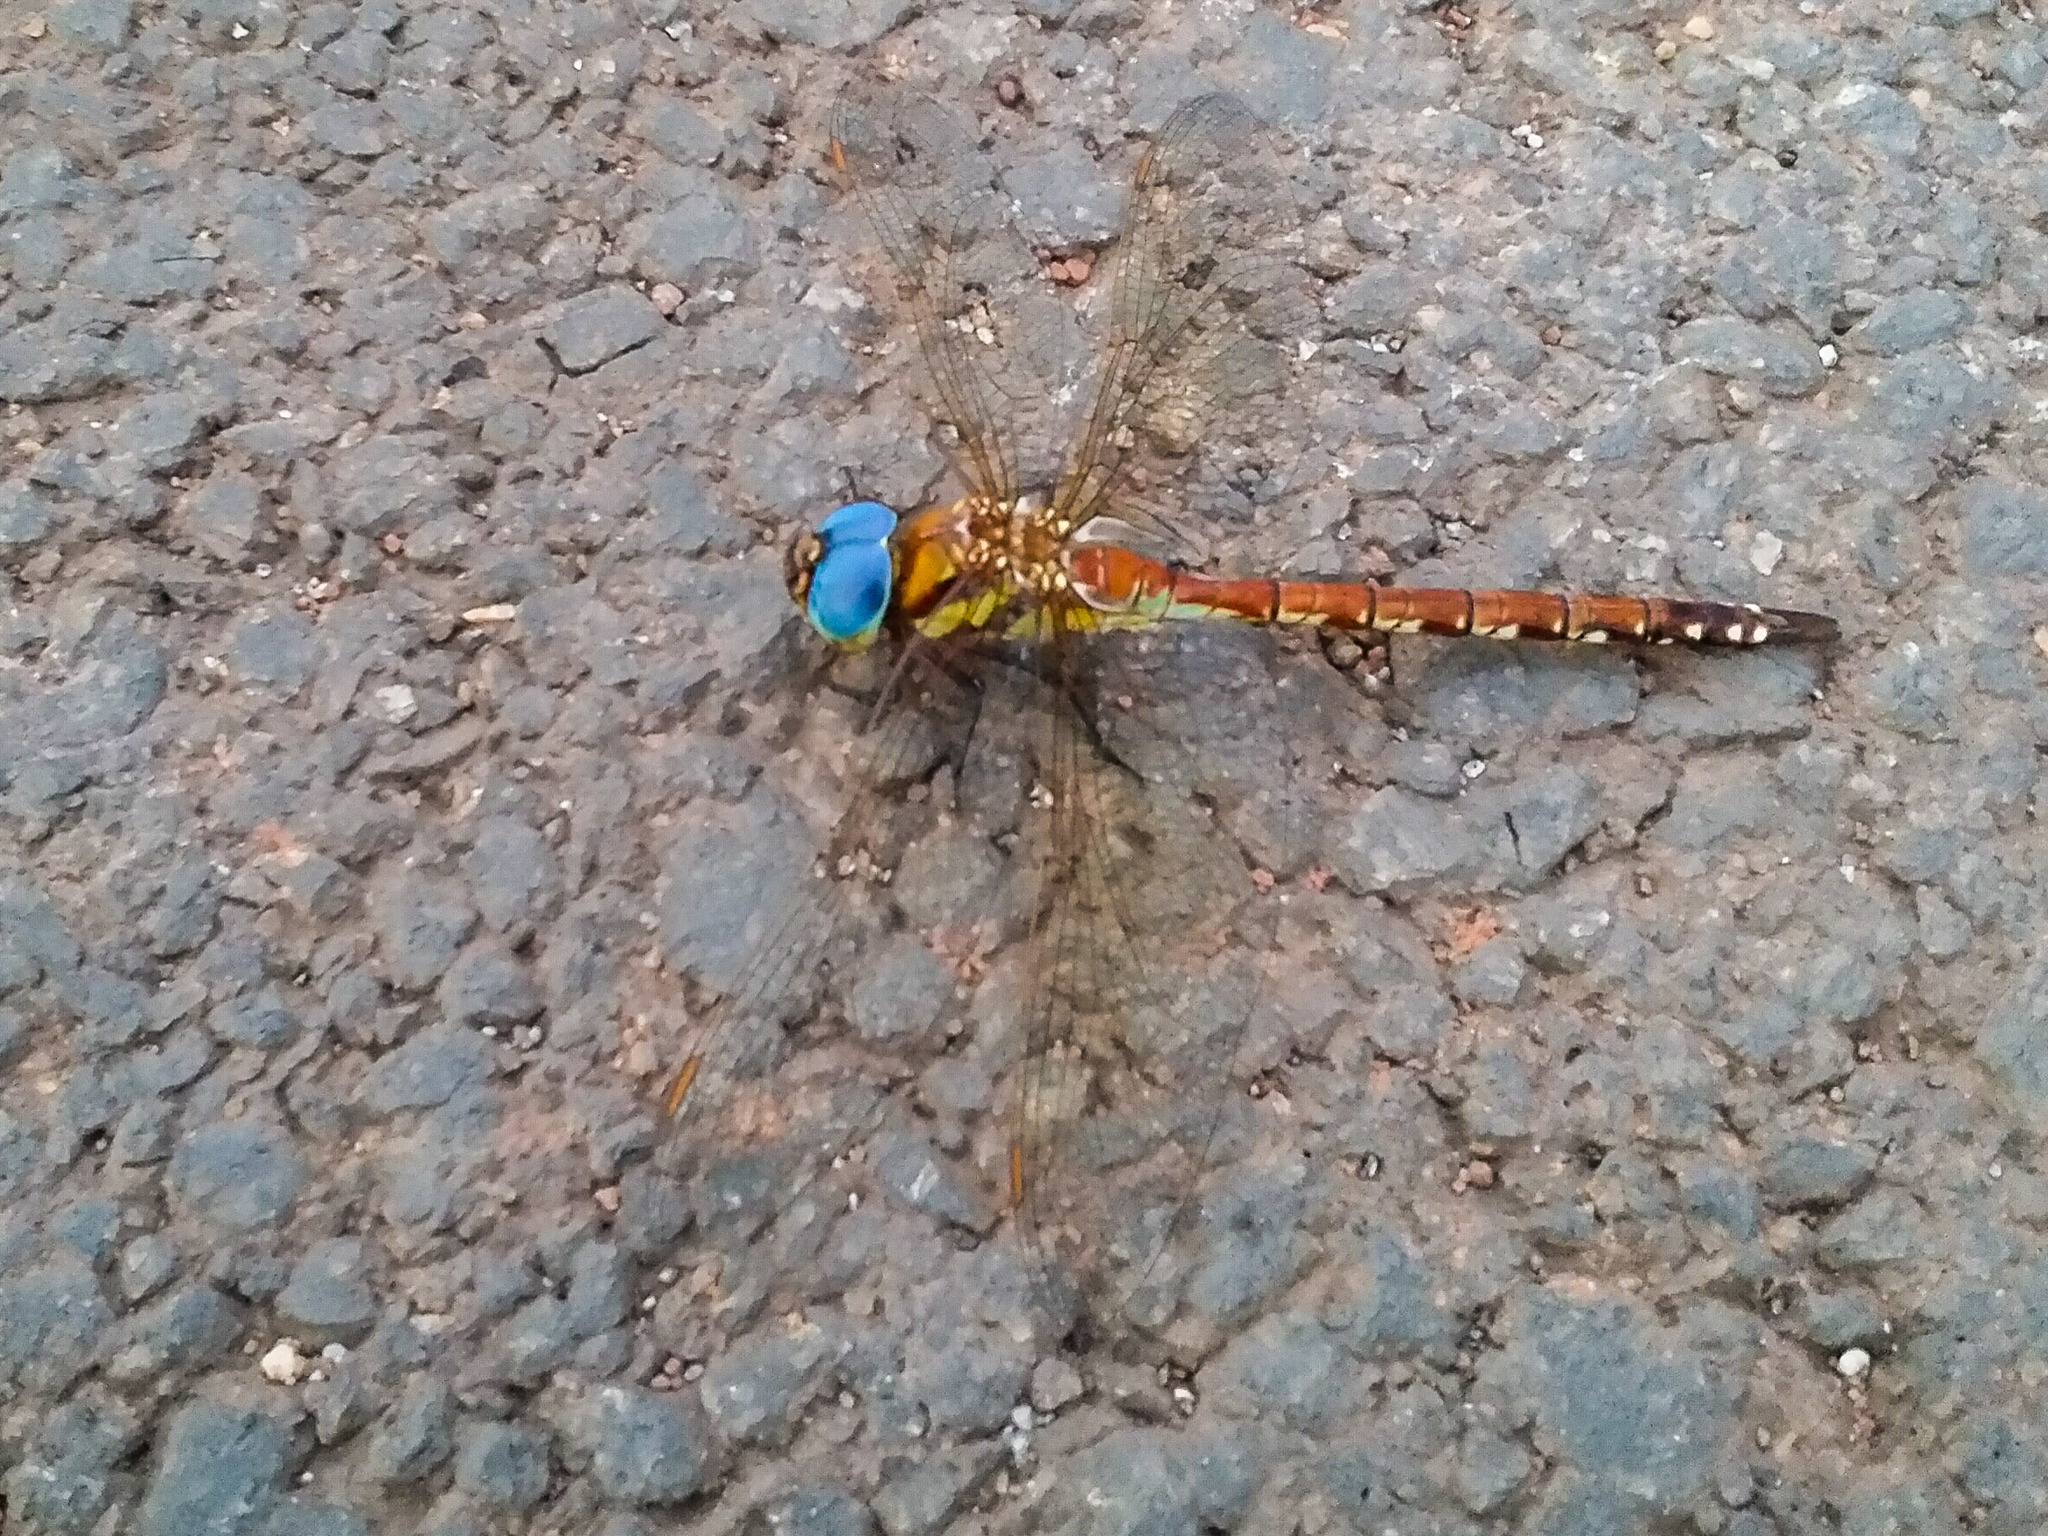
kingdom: Animalia
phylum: Arthropoda
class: Insecta
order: Odonata
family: Aeshnidae
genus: Anaciaeschna
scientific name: Anaciaeschna jaspidea
